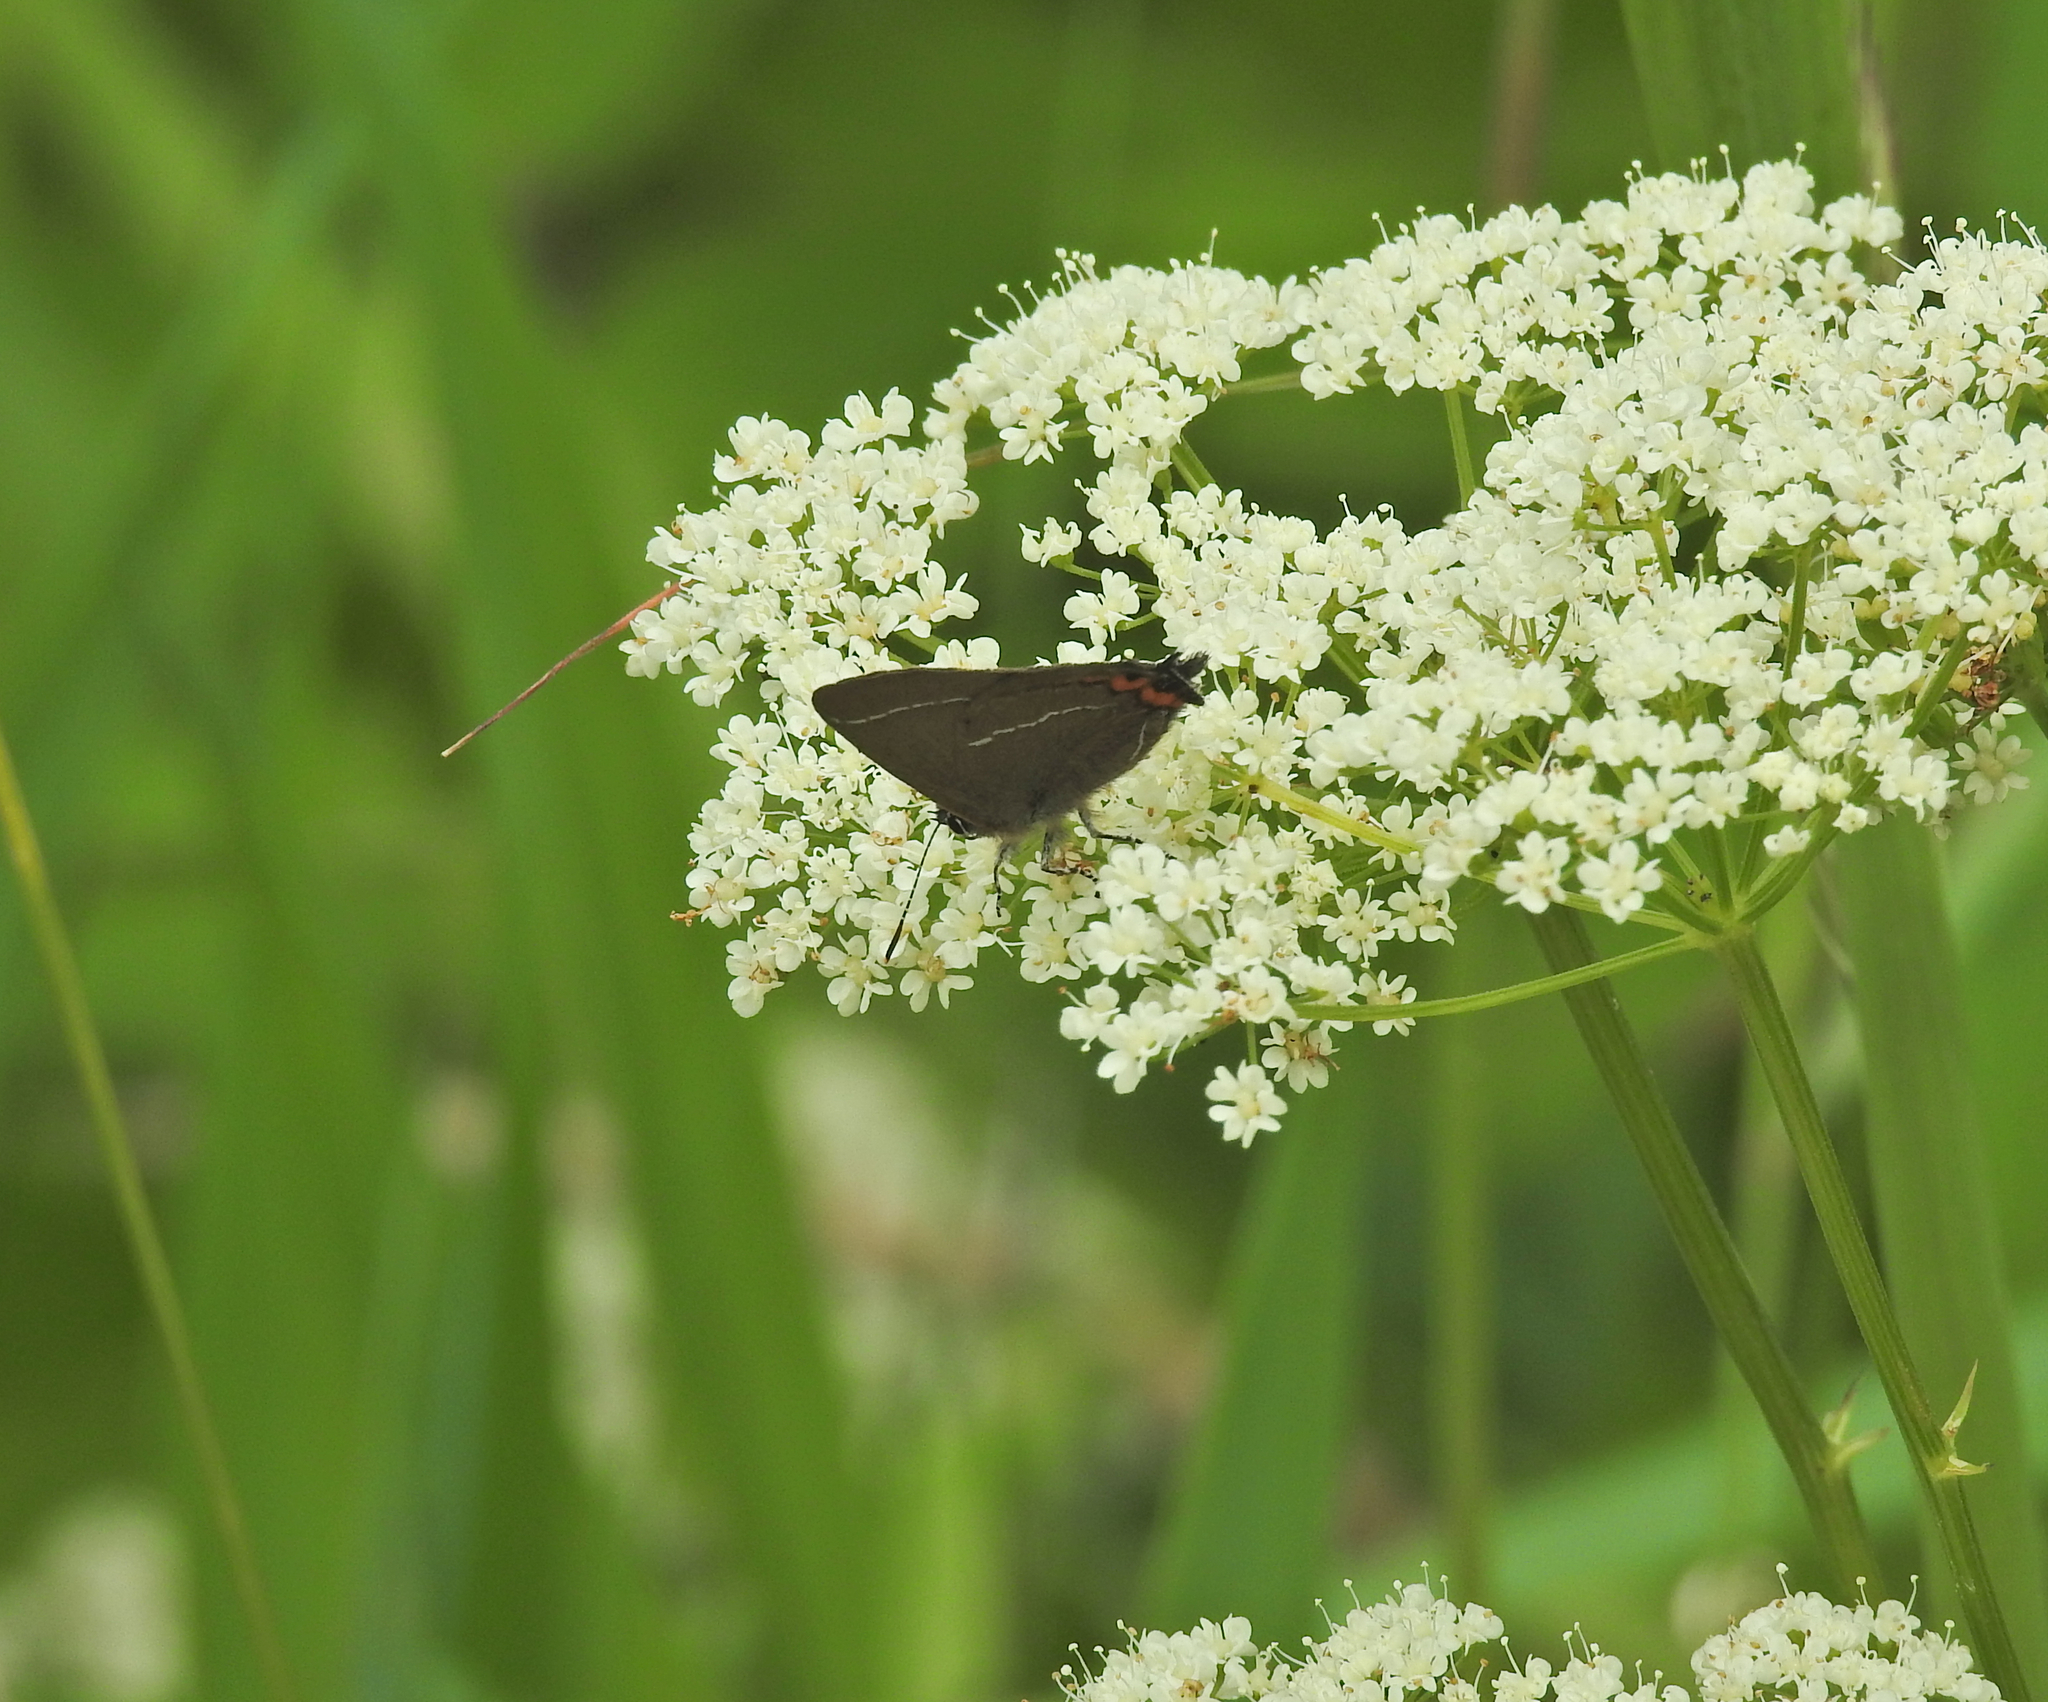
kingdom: Animalia
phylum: Arthropoda
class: Insecta
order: Lepidoptera
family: Lycaenidae
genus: Satyrium
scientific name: Satyrium w-album
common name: White-letter hairstreak
